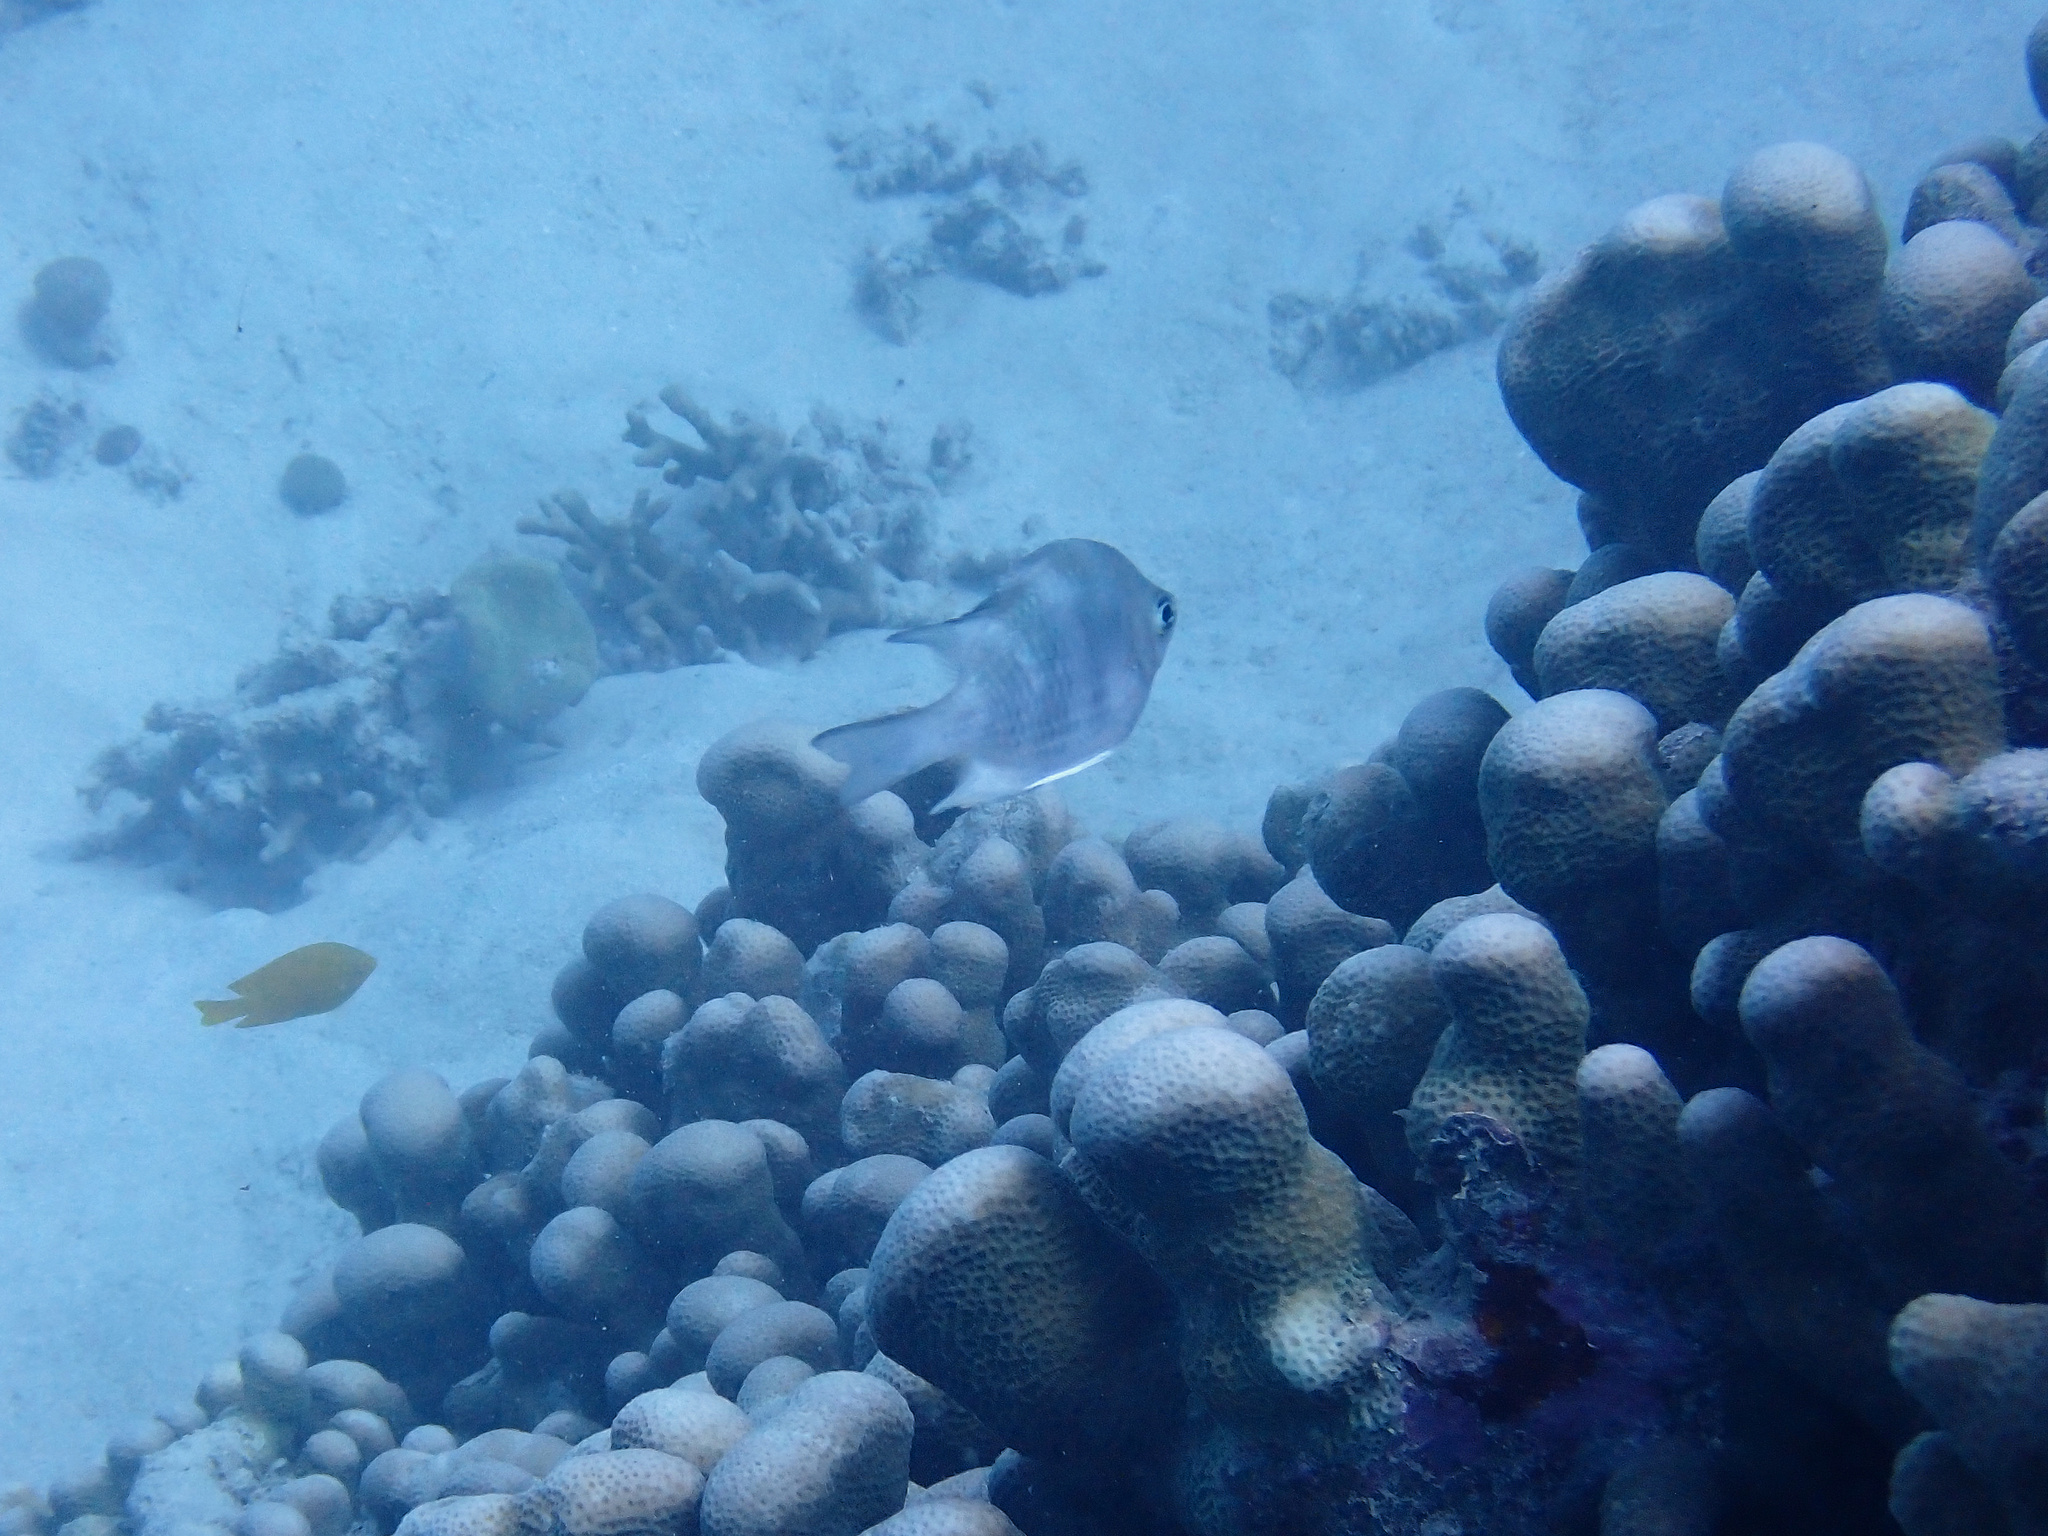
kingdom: Animalia
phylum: Chordata
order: Perciformes
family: Pomacentridae
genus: Amblyglyphidodon
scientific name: Amblyglyphidodon curacao
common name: Staghorn damsel
